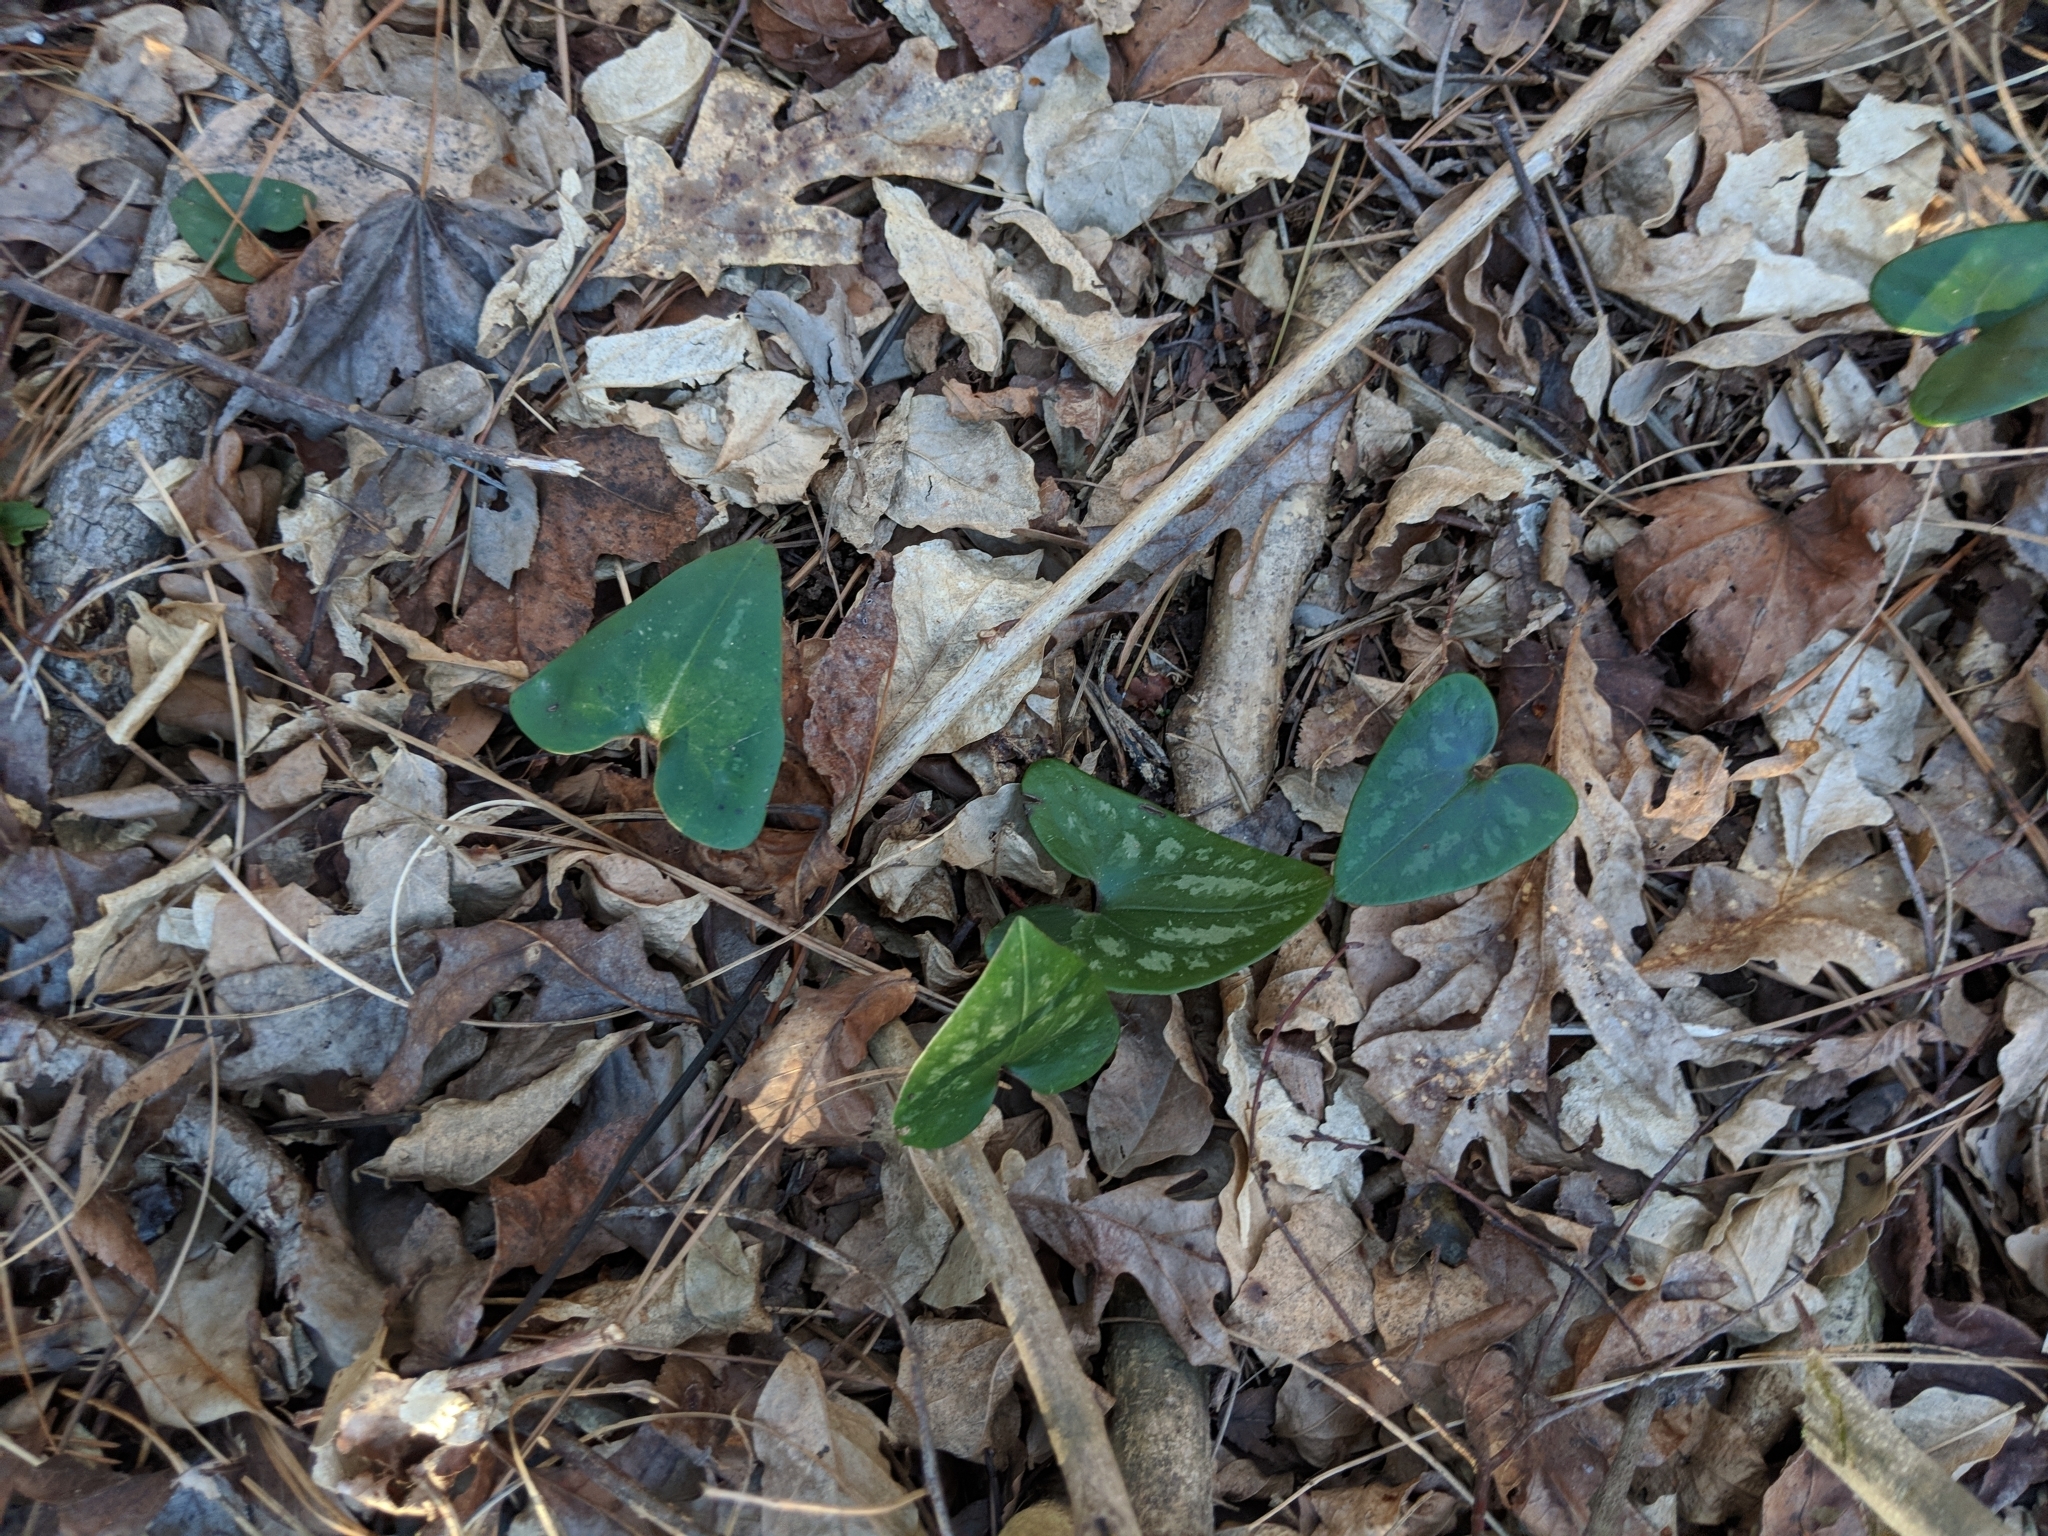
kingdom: Plantae
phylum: Tracheophyta
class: Magnoliopsida
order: Piperales
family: Aristolochiaceae
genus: Hexastylis
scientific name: Hexastylis arifolia
